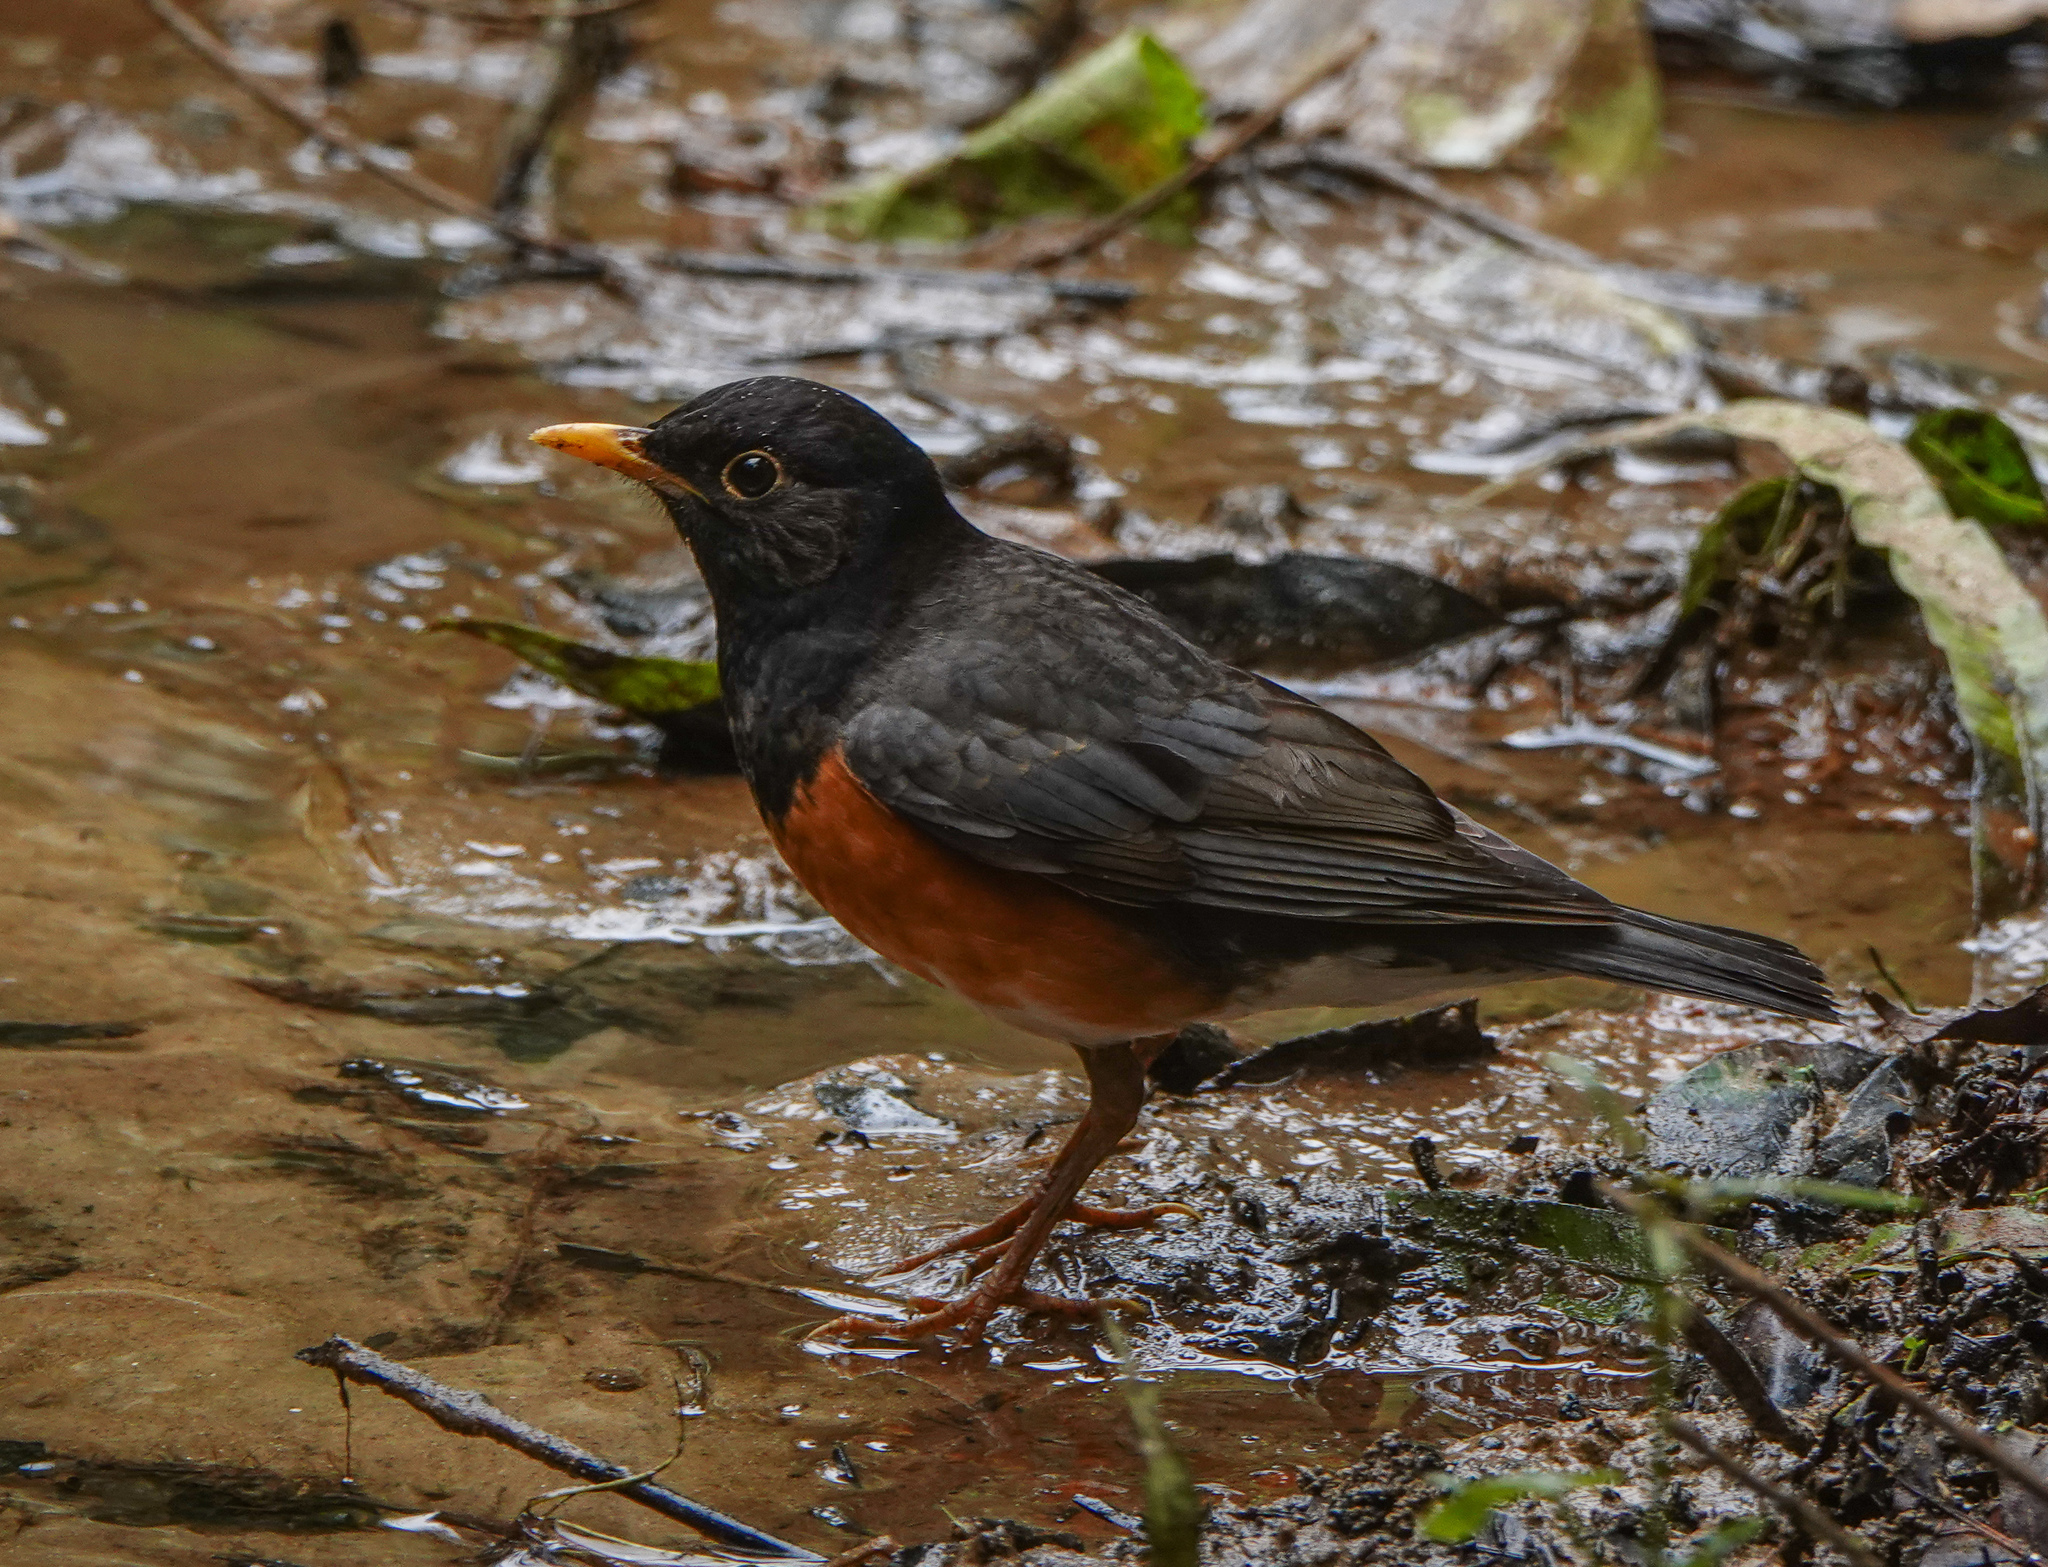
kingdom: Animalia
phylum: Chordata
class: Aves
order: Passeriformes
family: Turdidae
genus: Turdus
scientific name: Turdus dissimilis
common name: Black-breasted thrush
